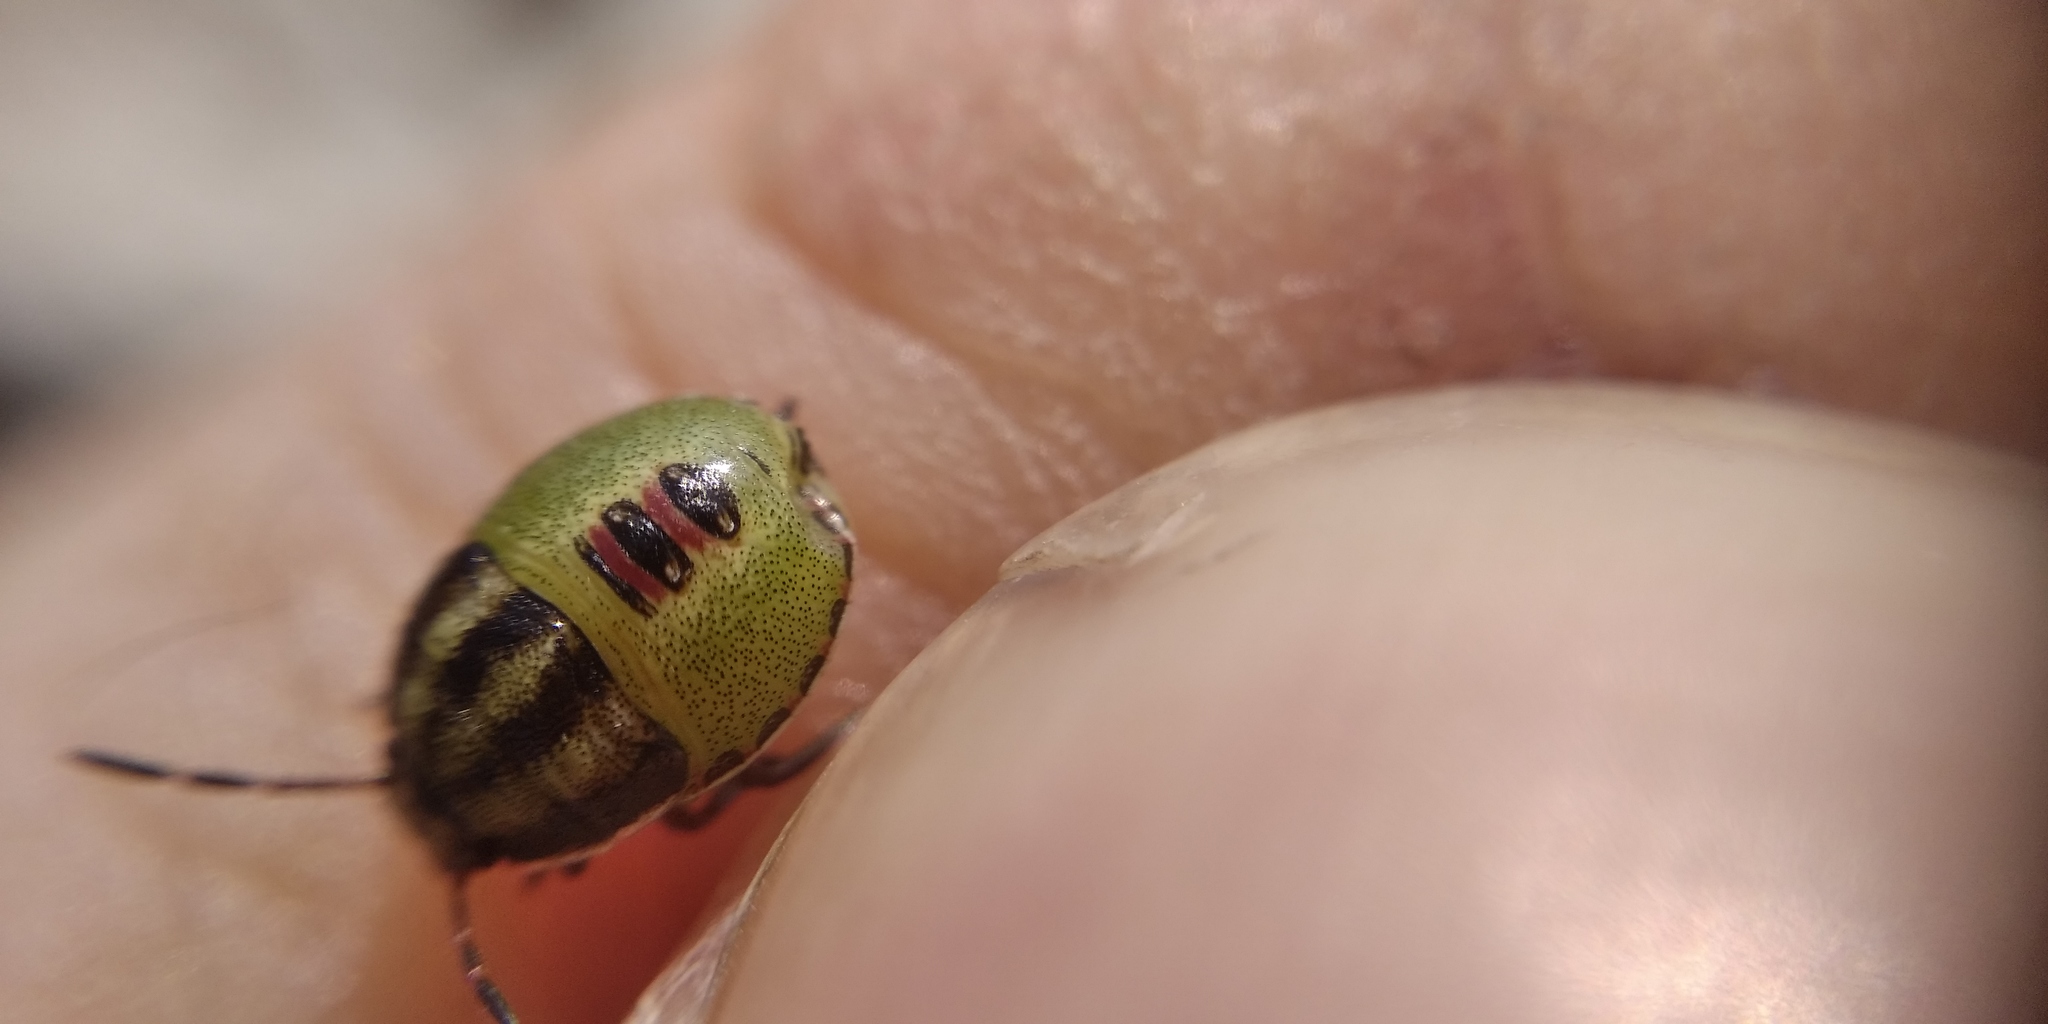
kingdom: Animalia
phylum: Arthropoda
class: Insecta
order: Hemiptera
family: Pentatomidae
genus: Piezodorus
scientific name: Piezodorus lituratus
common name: Stink bug
